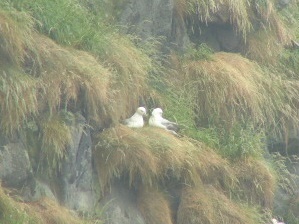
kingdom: Animalia
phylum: Chordata
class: Aves
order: Procellariiformes
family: Procellariidae
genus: Fulmarus
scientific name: Fulmarus glacialis
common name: Northern fulmar
